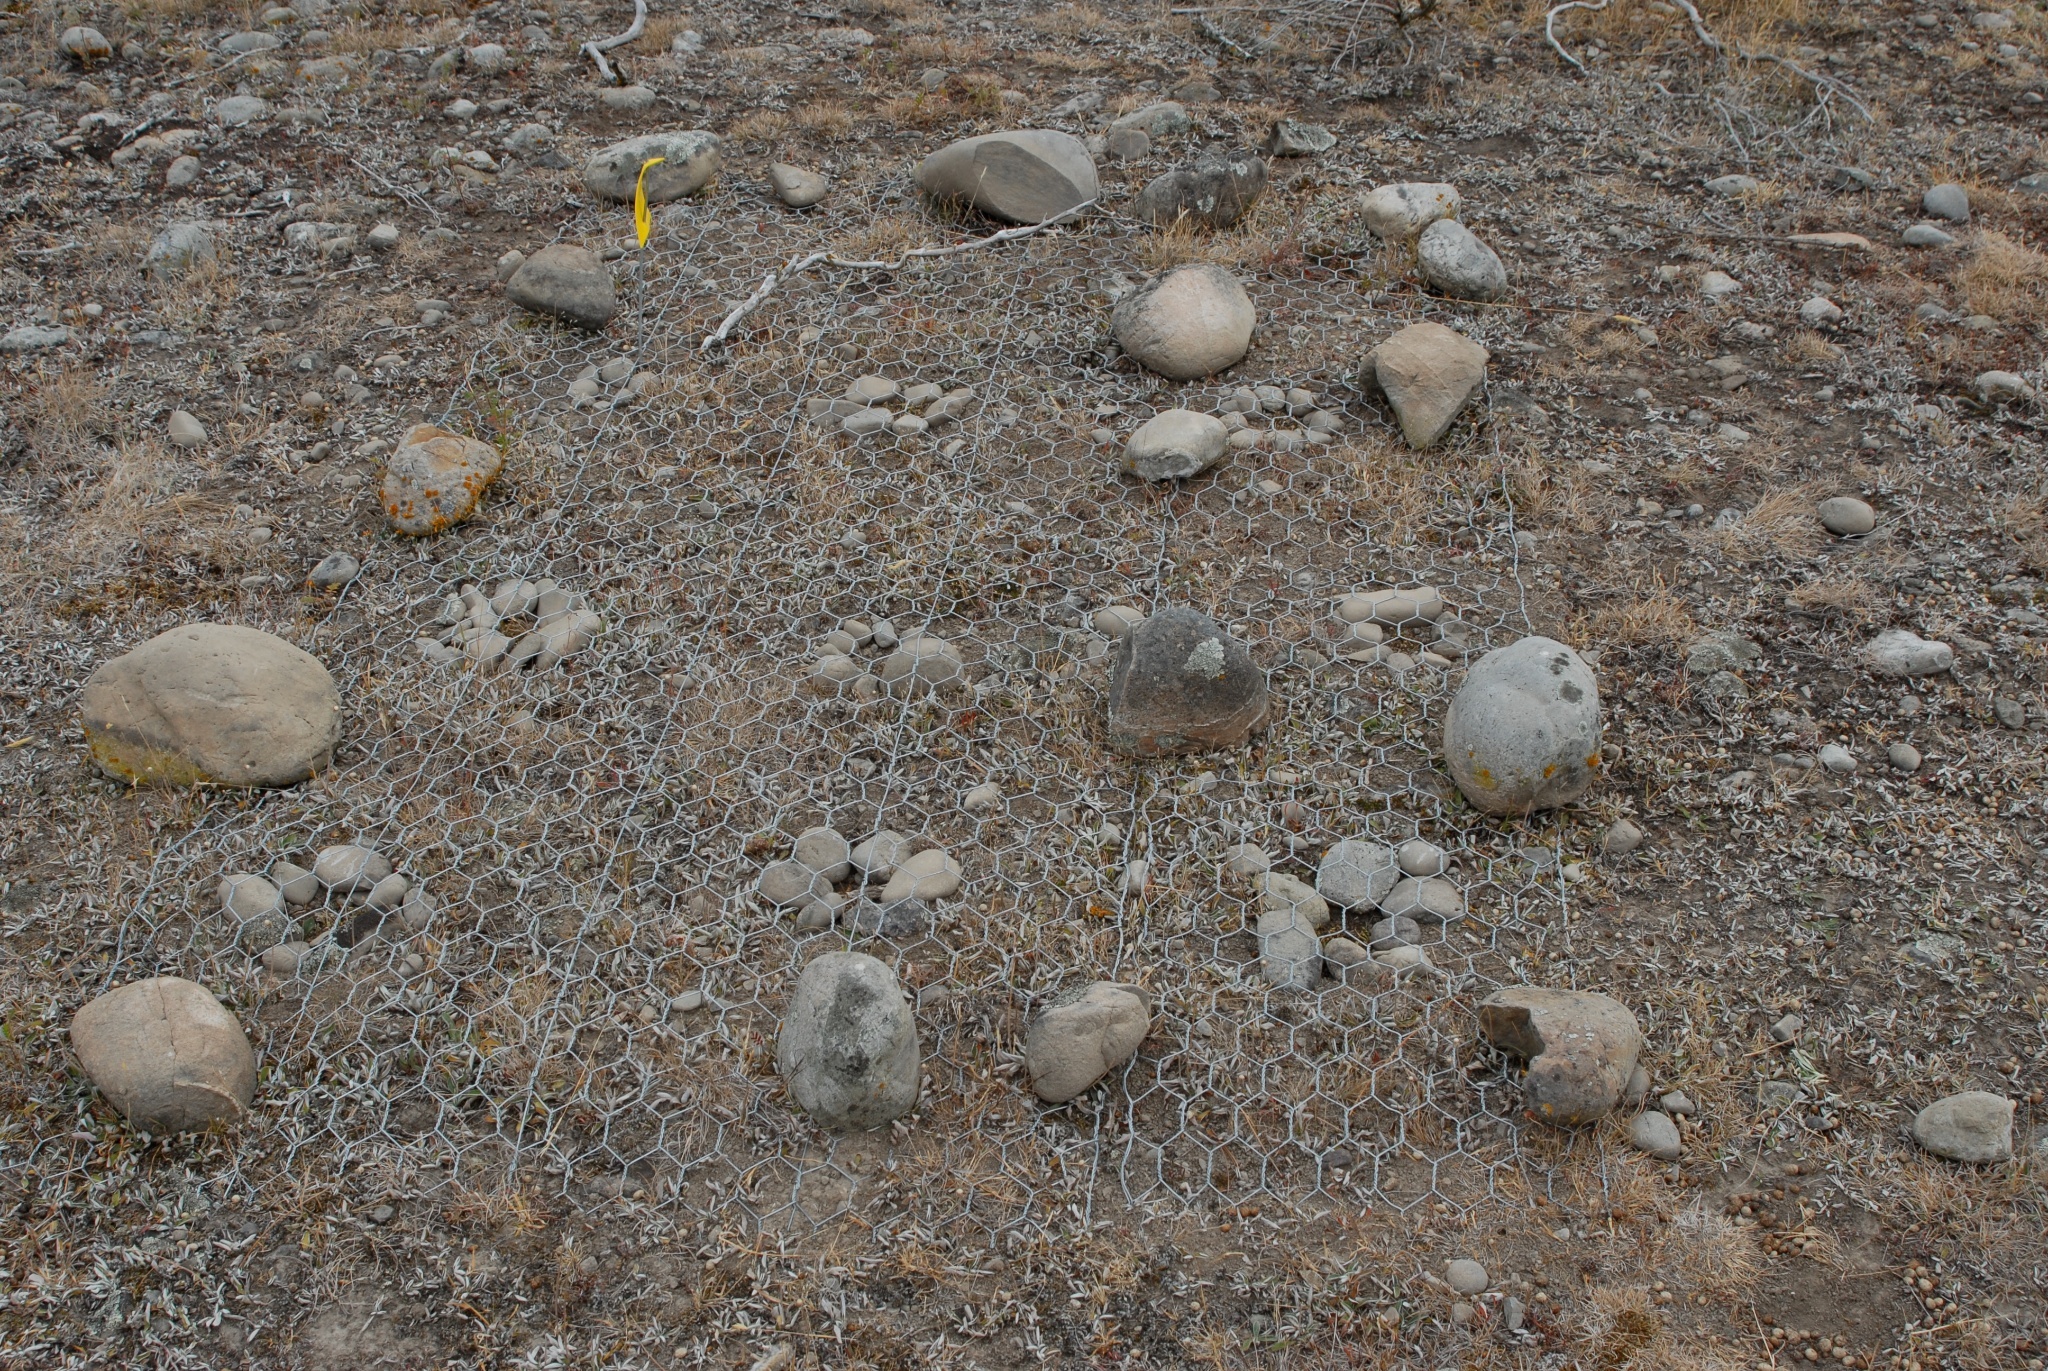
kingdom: Plantae
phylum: Tracheophyta
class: Magnoliopsida
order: Asterales
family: Asteraceae
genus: Brachyscome
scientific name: Brachyscome pinnata
